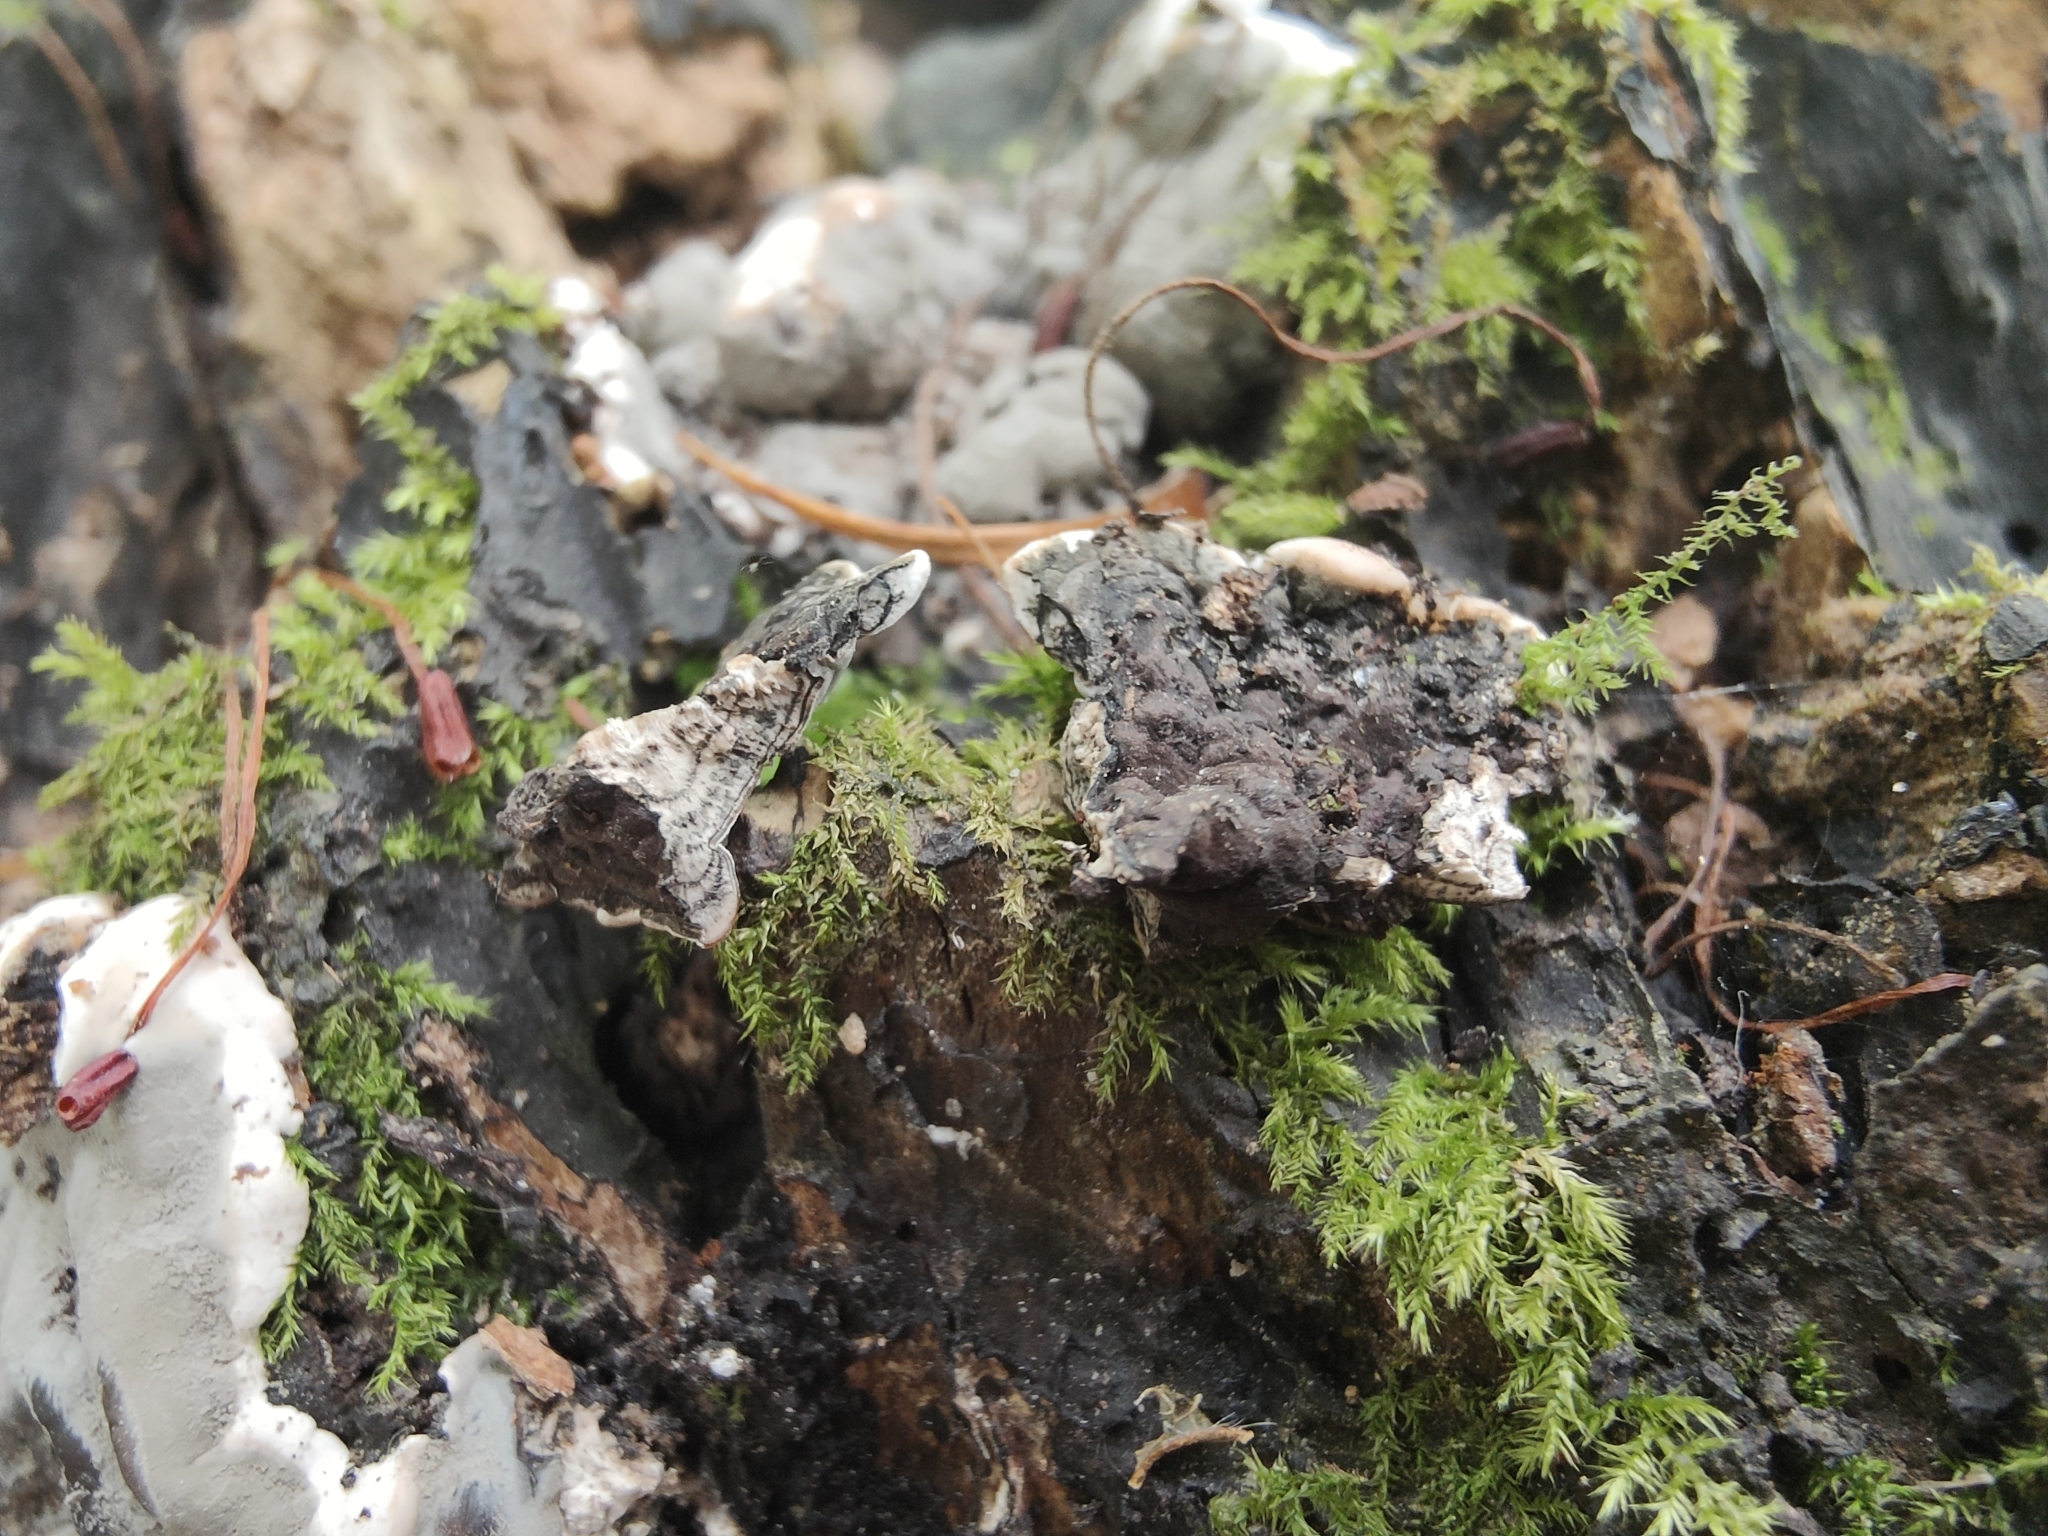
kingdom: Fungi
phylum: Ascomycota
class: Sordariomycetes
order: Xylariales
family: Xylariaceae
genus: Kretzschmaria
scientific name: Kretzschmaria deusta
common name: Brittle cinder
